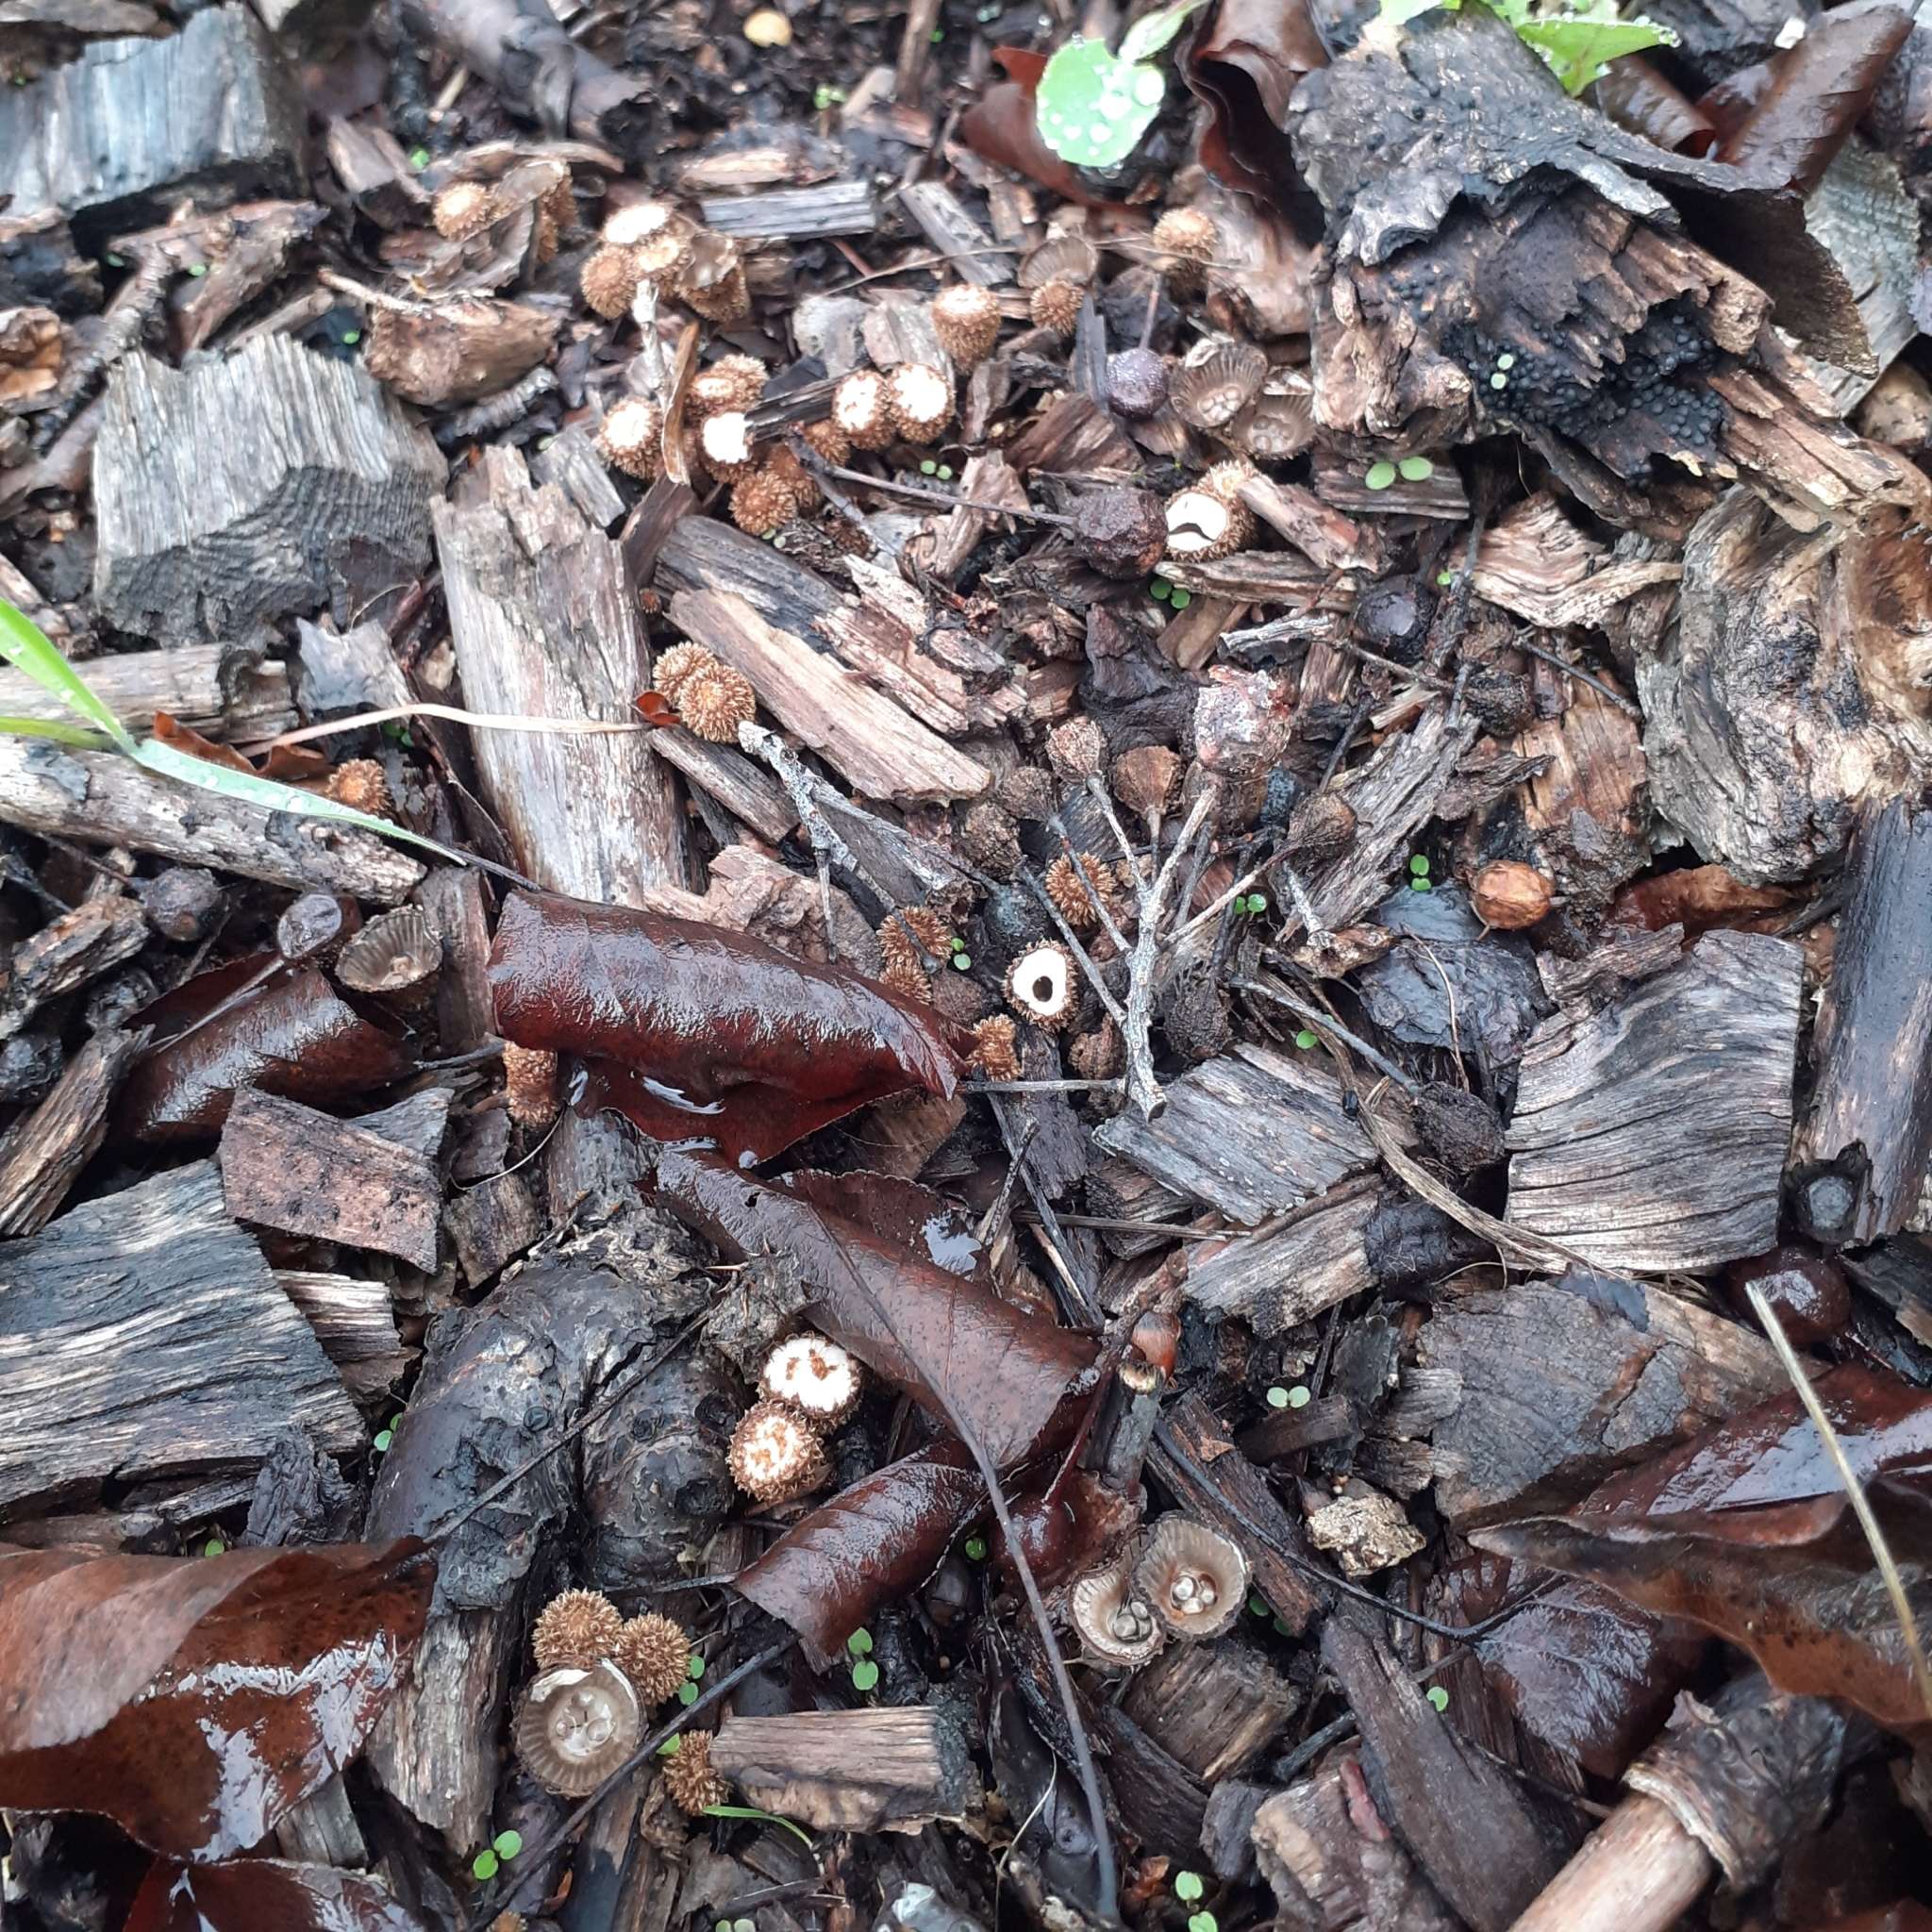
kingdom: Fungi
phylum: Basidiomycota
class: Agaricomycetes
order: Agaricales
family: Agaricaceae
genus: Cyathus
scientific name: Cyathus striatus
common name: Fluted bird's nest
